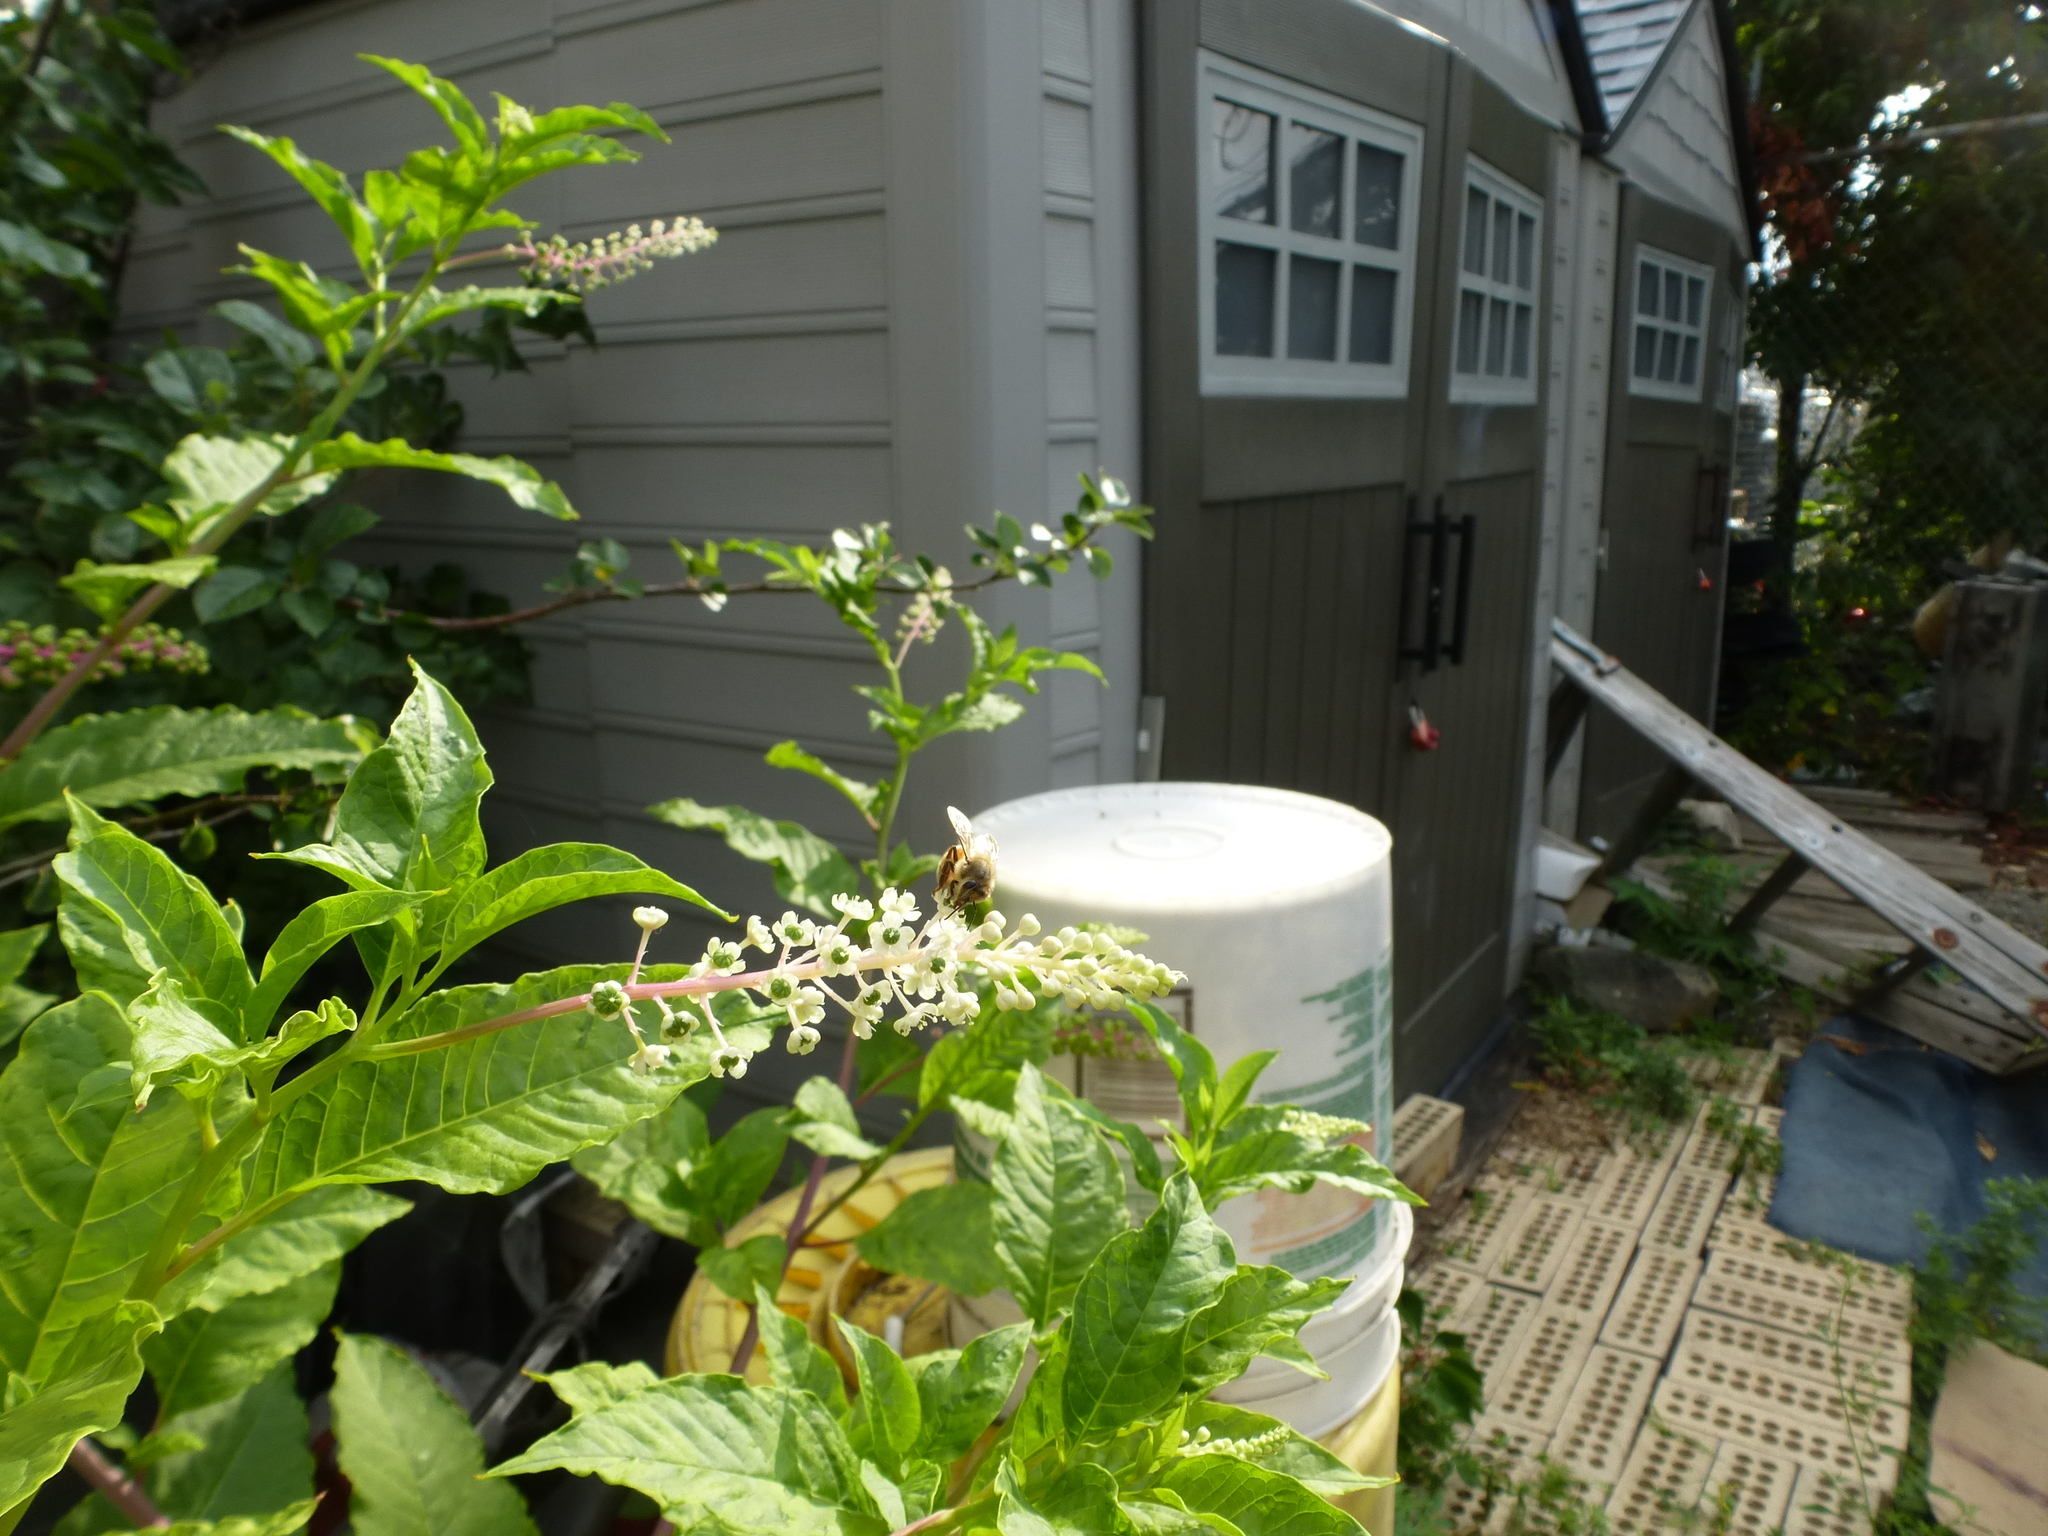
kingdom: Animalia
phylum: Arthropoda
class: Insecta
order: Hymenoptera
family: Apidae
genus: Apis
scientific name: Apis mellifera
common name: Honey bee
